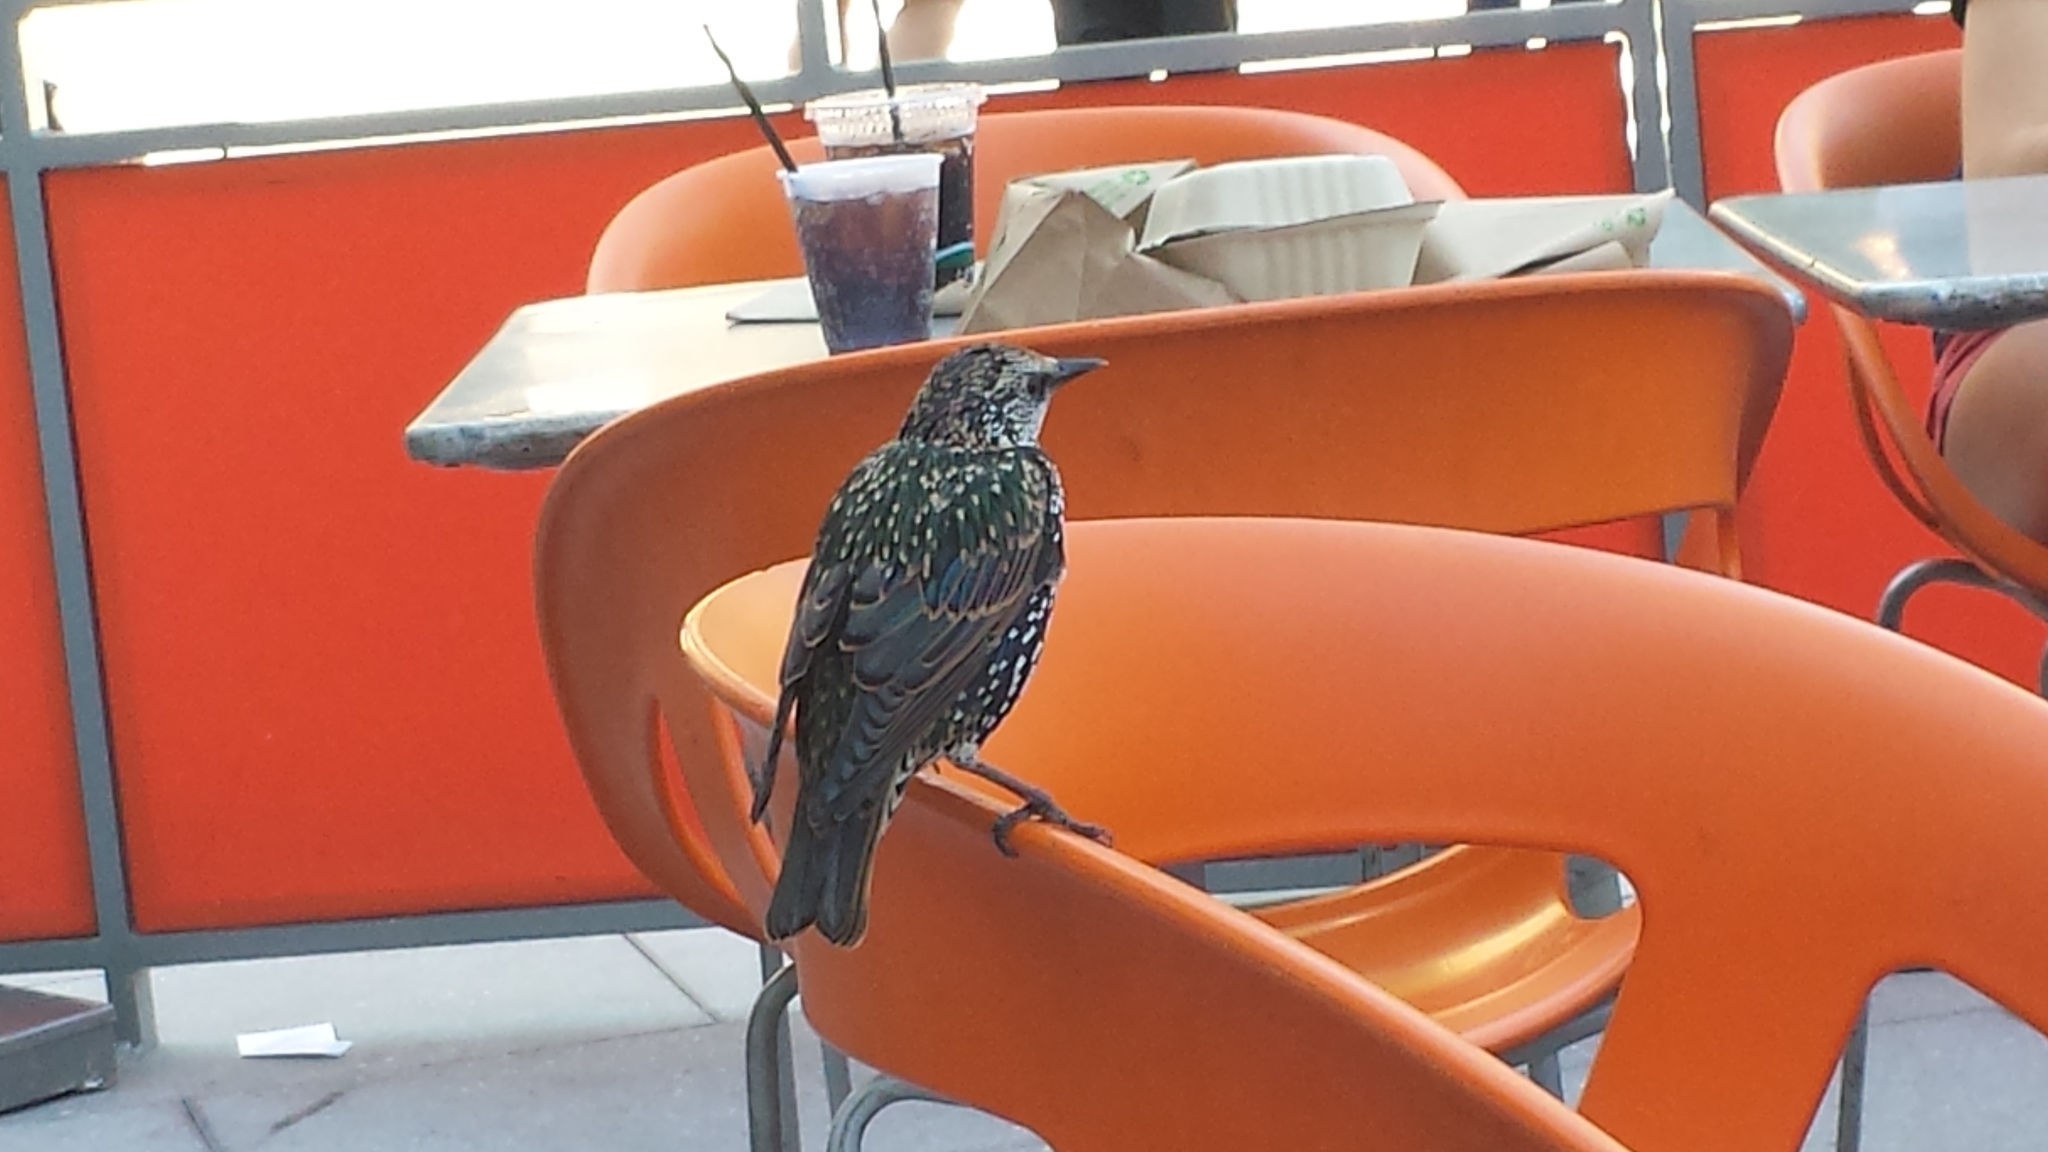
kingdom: Animalia
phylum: Chordata
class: Aves
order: Passeriformes
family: Sturnidae
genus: Sturnus
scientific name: Sturnus vulgaris
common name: Common starling
